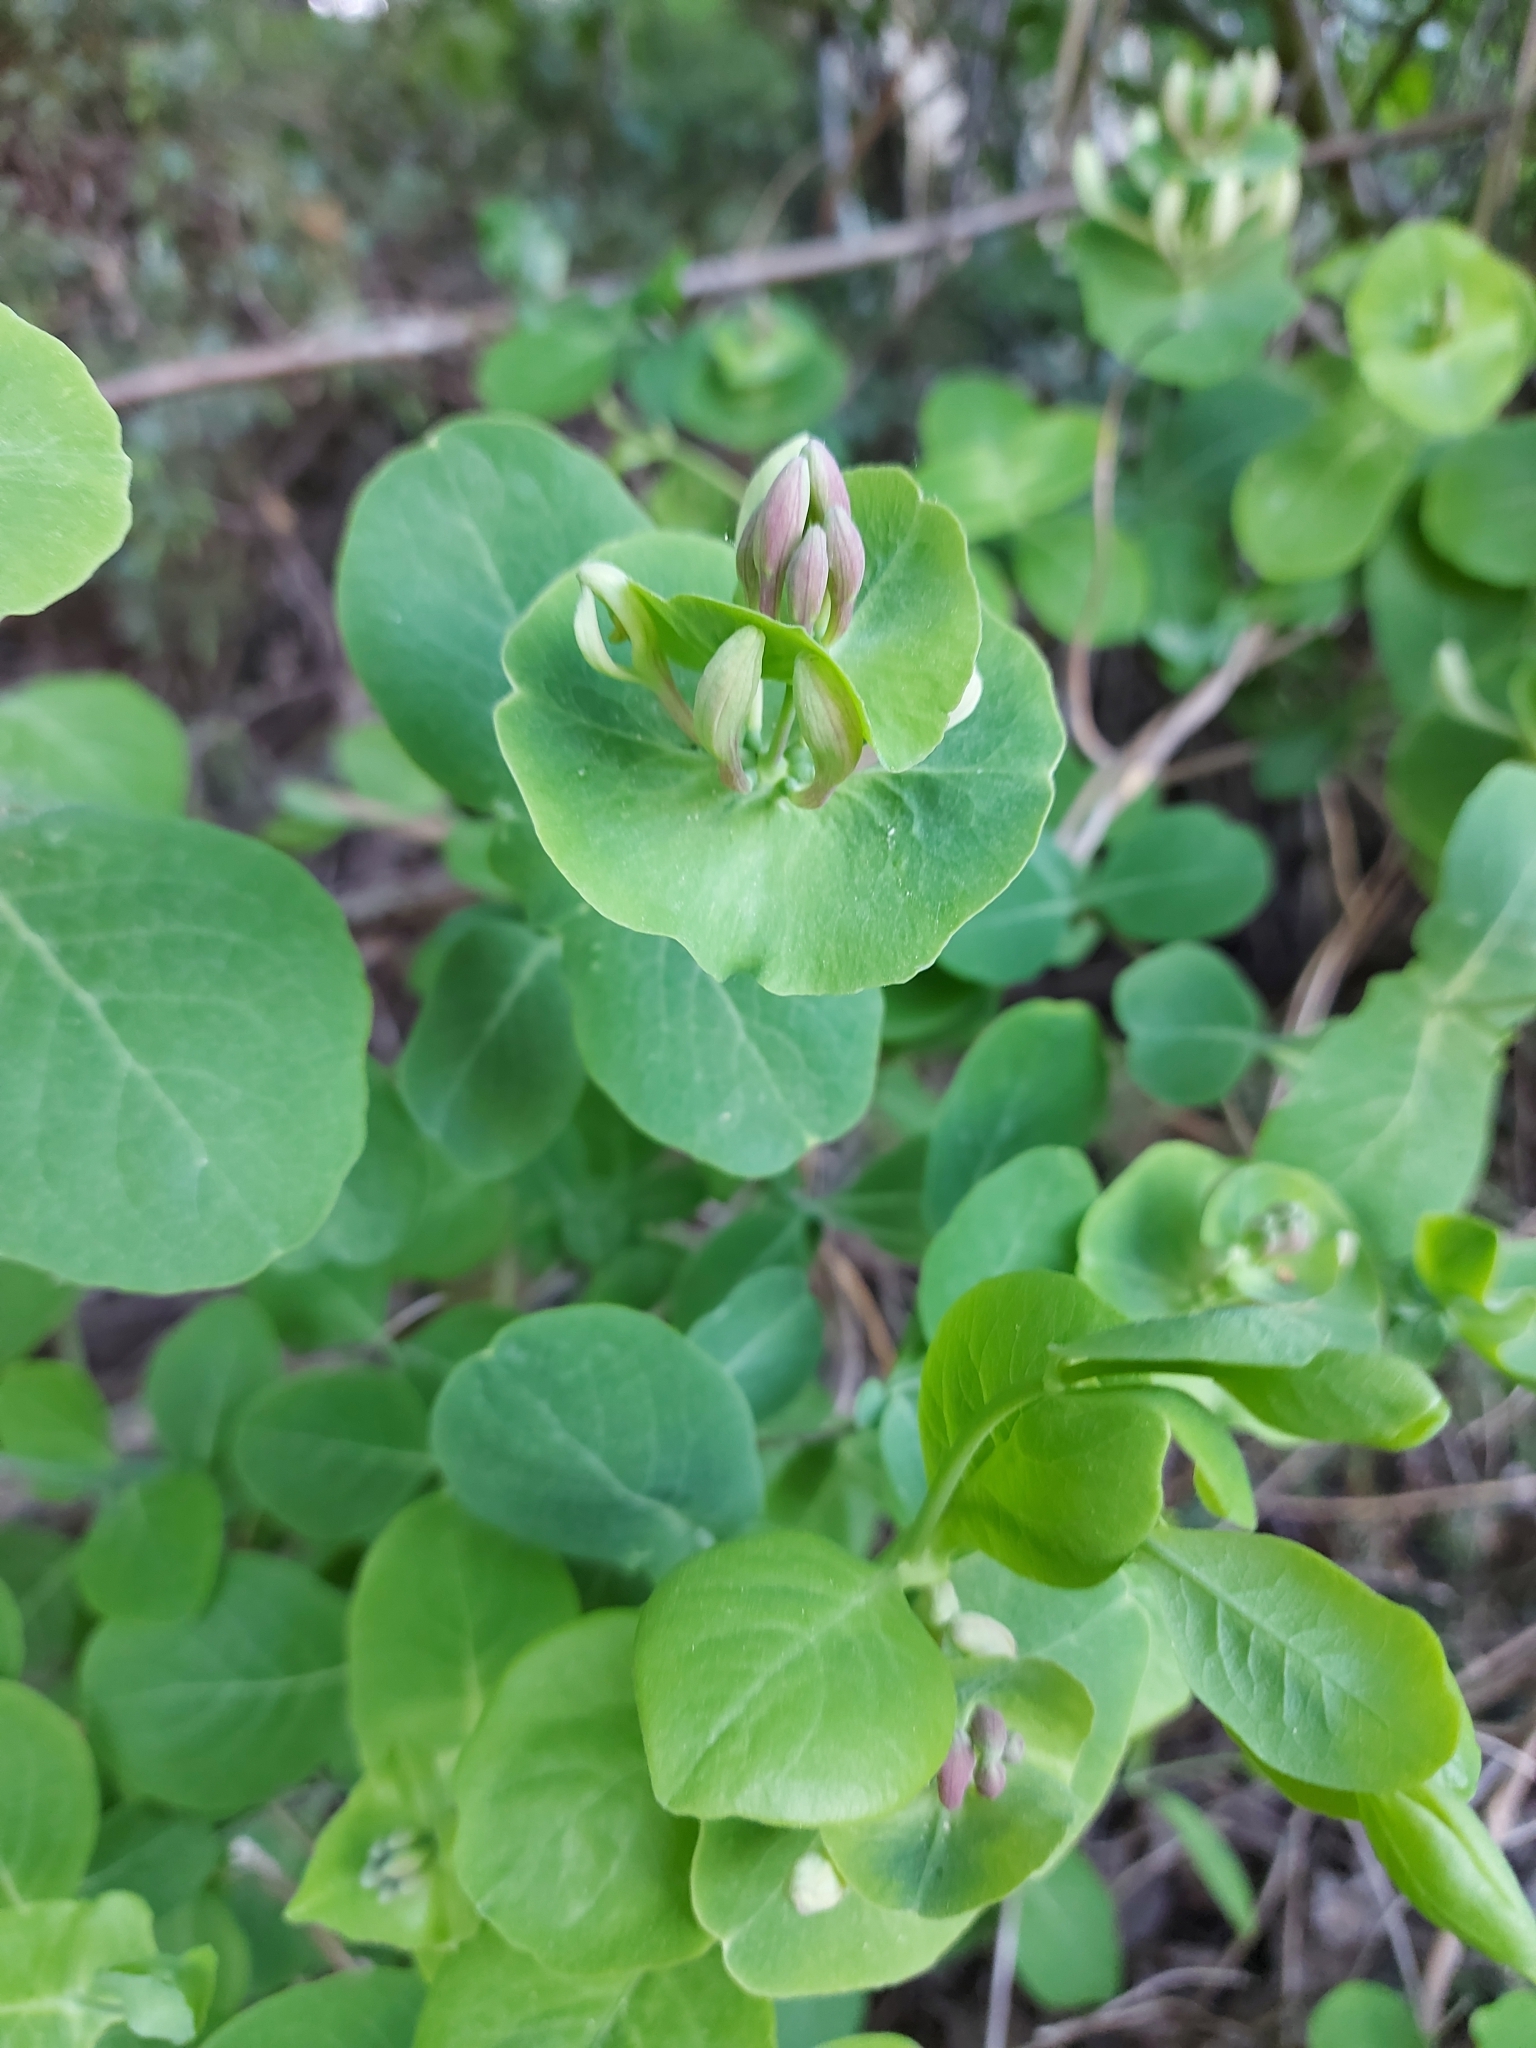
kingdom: Plantae
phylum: Tracheophyta
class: Magnoliopsida
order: Dipsacales
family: Caprifoliaceae
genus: Lonicera
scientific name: Lonicera caprifolium
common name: Perfoliate honeysuckle
